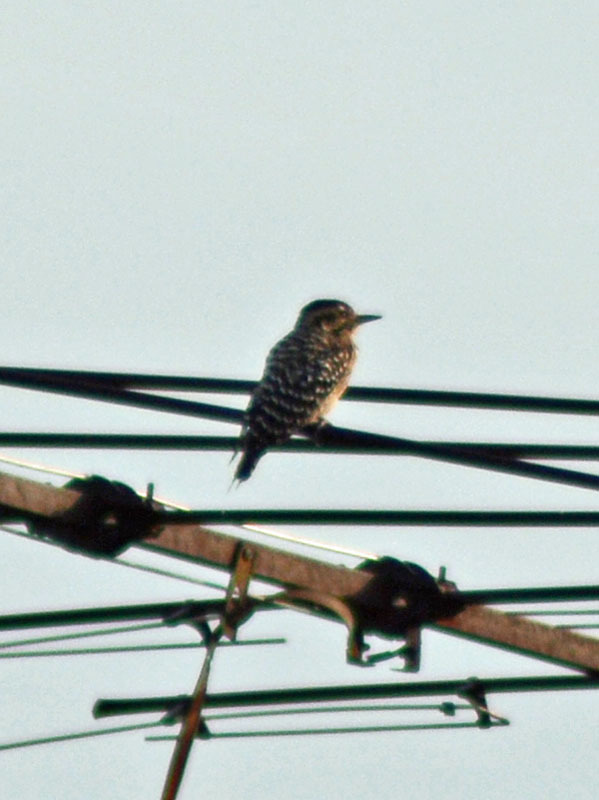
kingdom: Animalia
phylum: Chordata
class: Aves
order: Piciformes
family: Picidae
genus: Dryobates
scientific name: Dryobates scalaris
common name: Ladder-backed woodpecker
